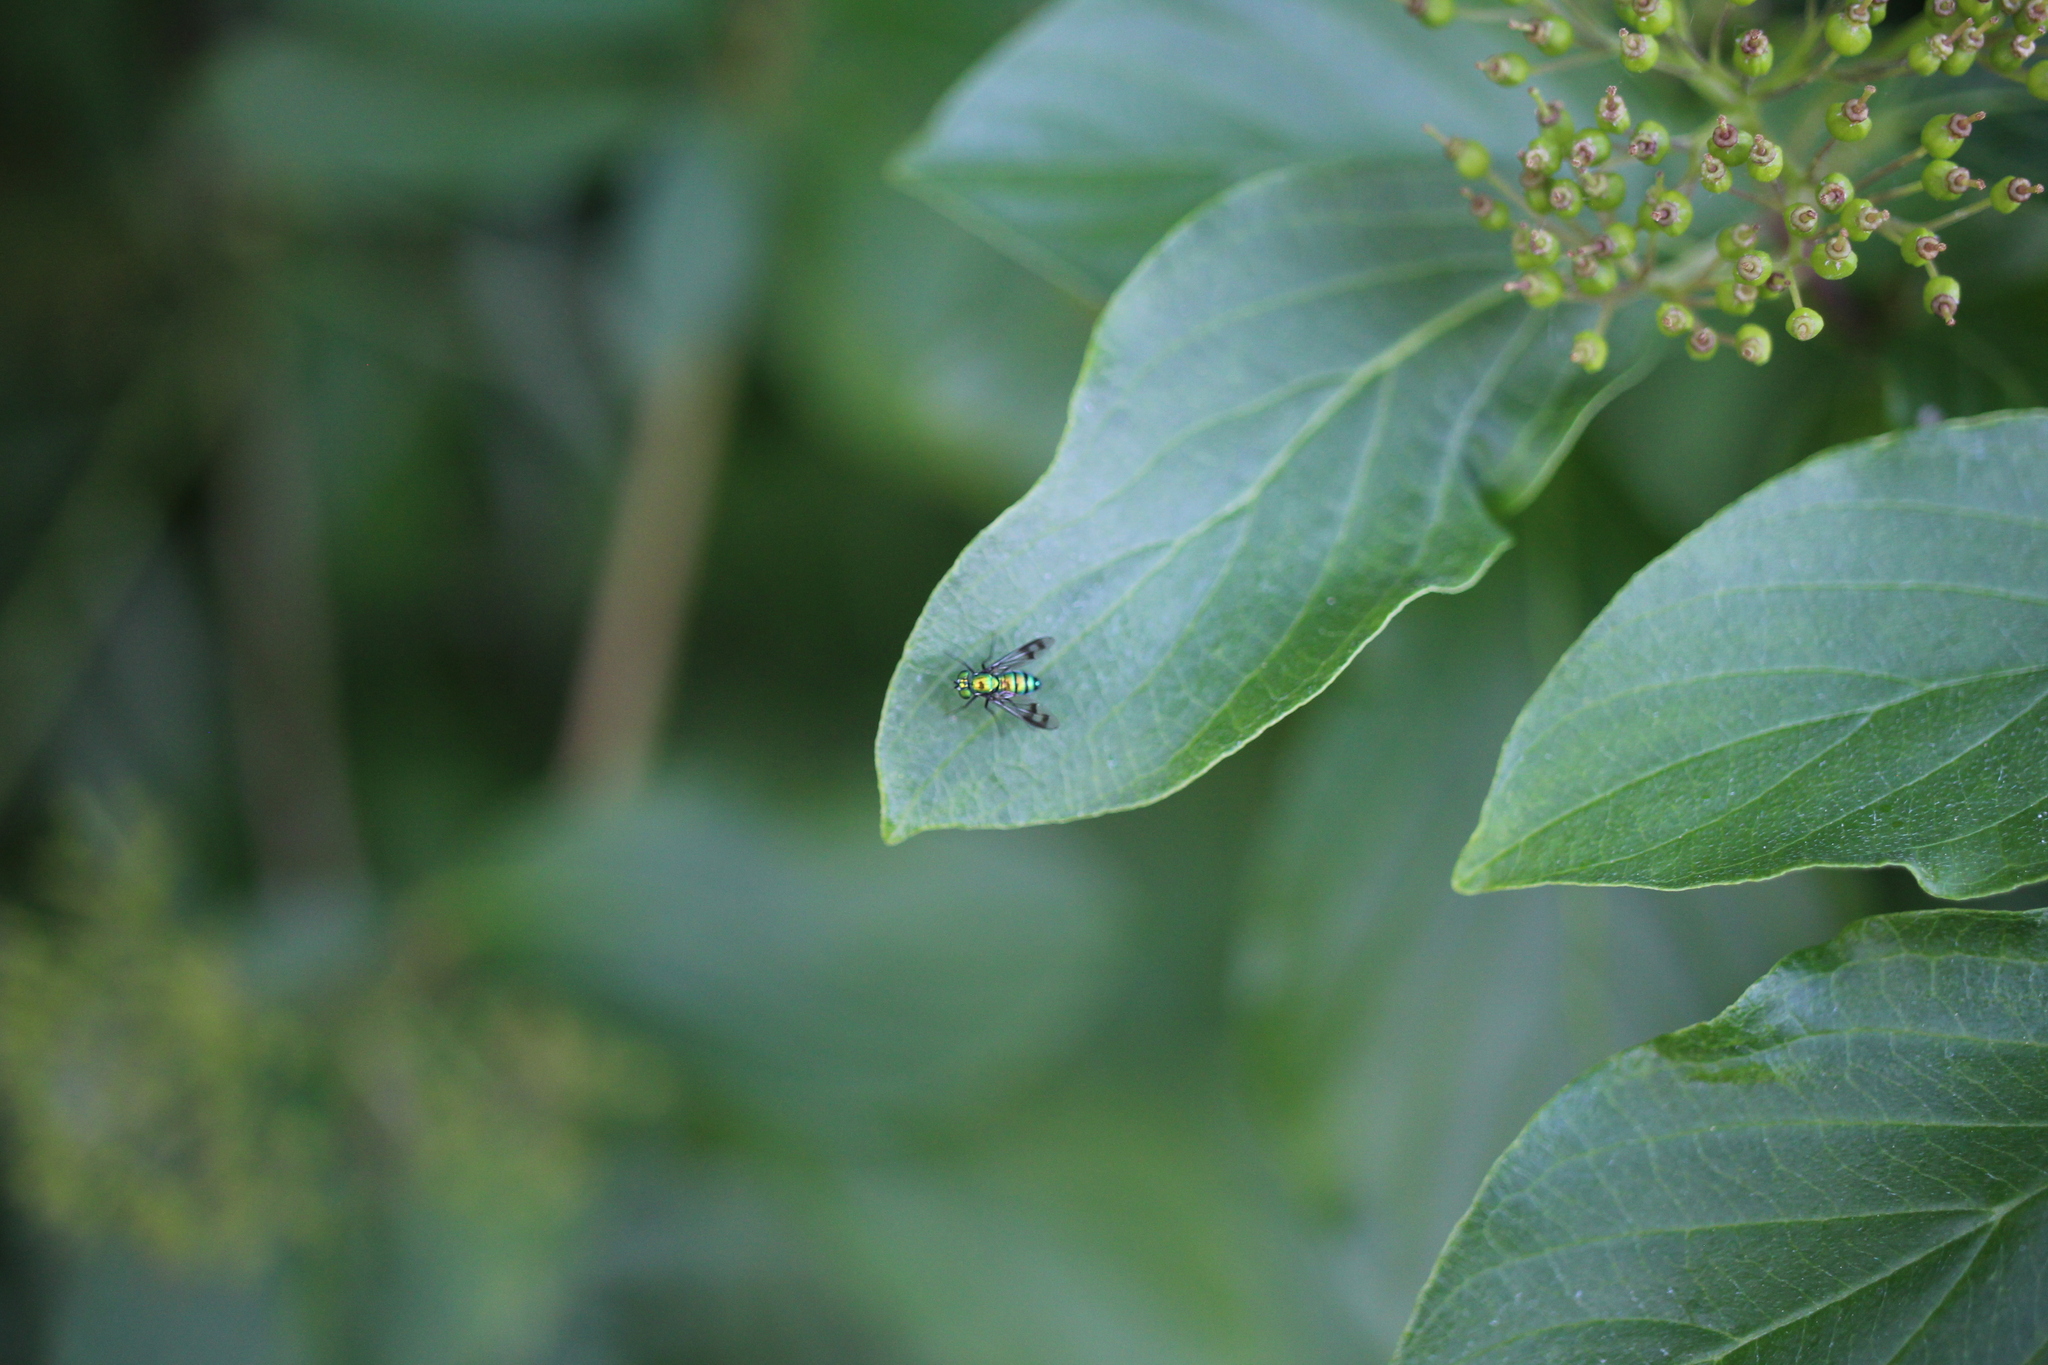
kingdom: Animalia
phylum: Arthropoda
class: Insecta
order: Diptera
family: Dolichopodidae
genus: Condylostylus
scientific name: Condylostylus occidentalis
